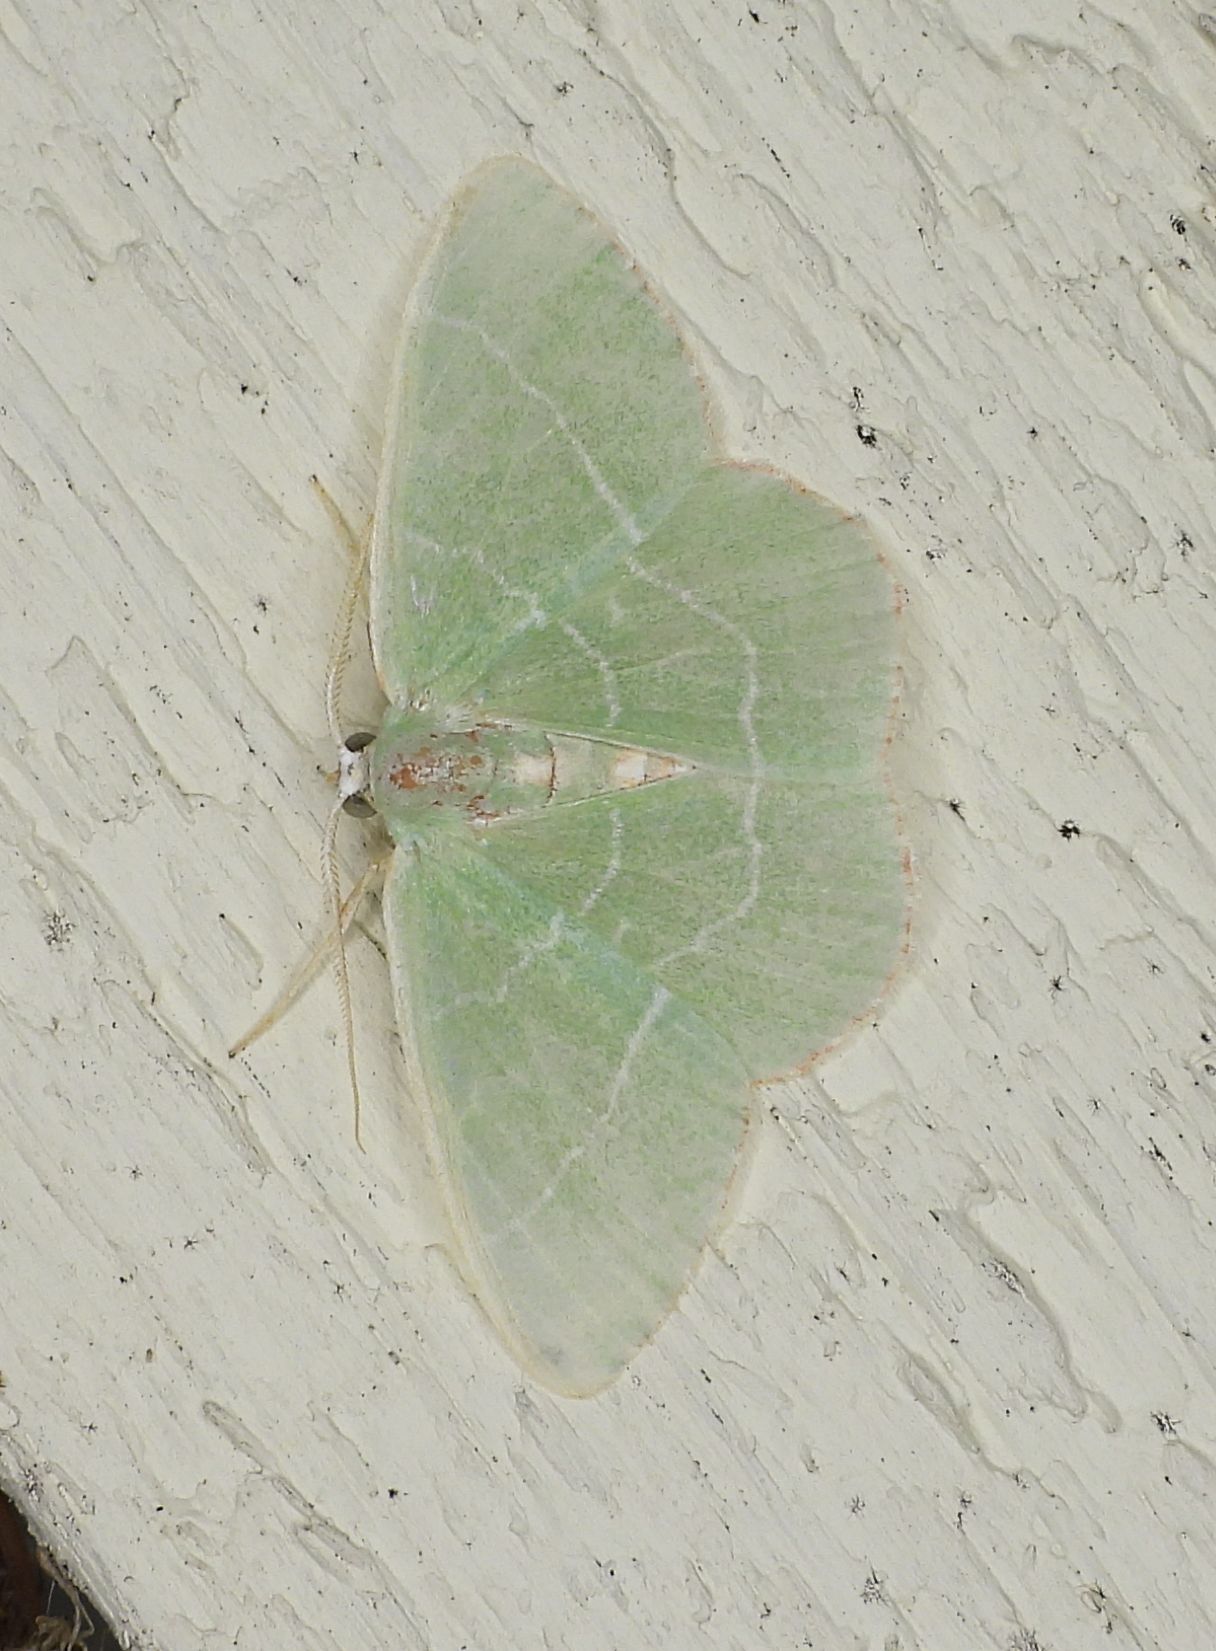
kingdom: Animalia
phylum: Arthropoda
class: Insecta
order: Lepidoptera
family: Geometridae
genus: Nemoria
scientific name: Nemoria bistriaria
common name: Red-fringed emerald
